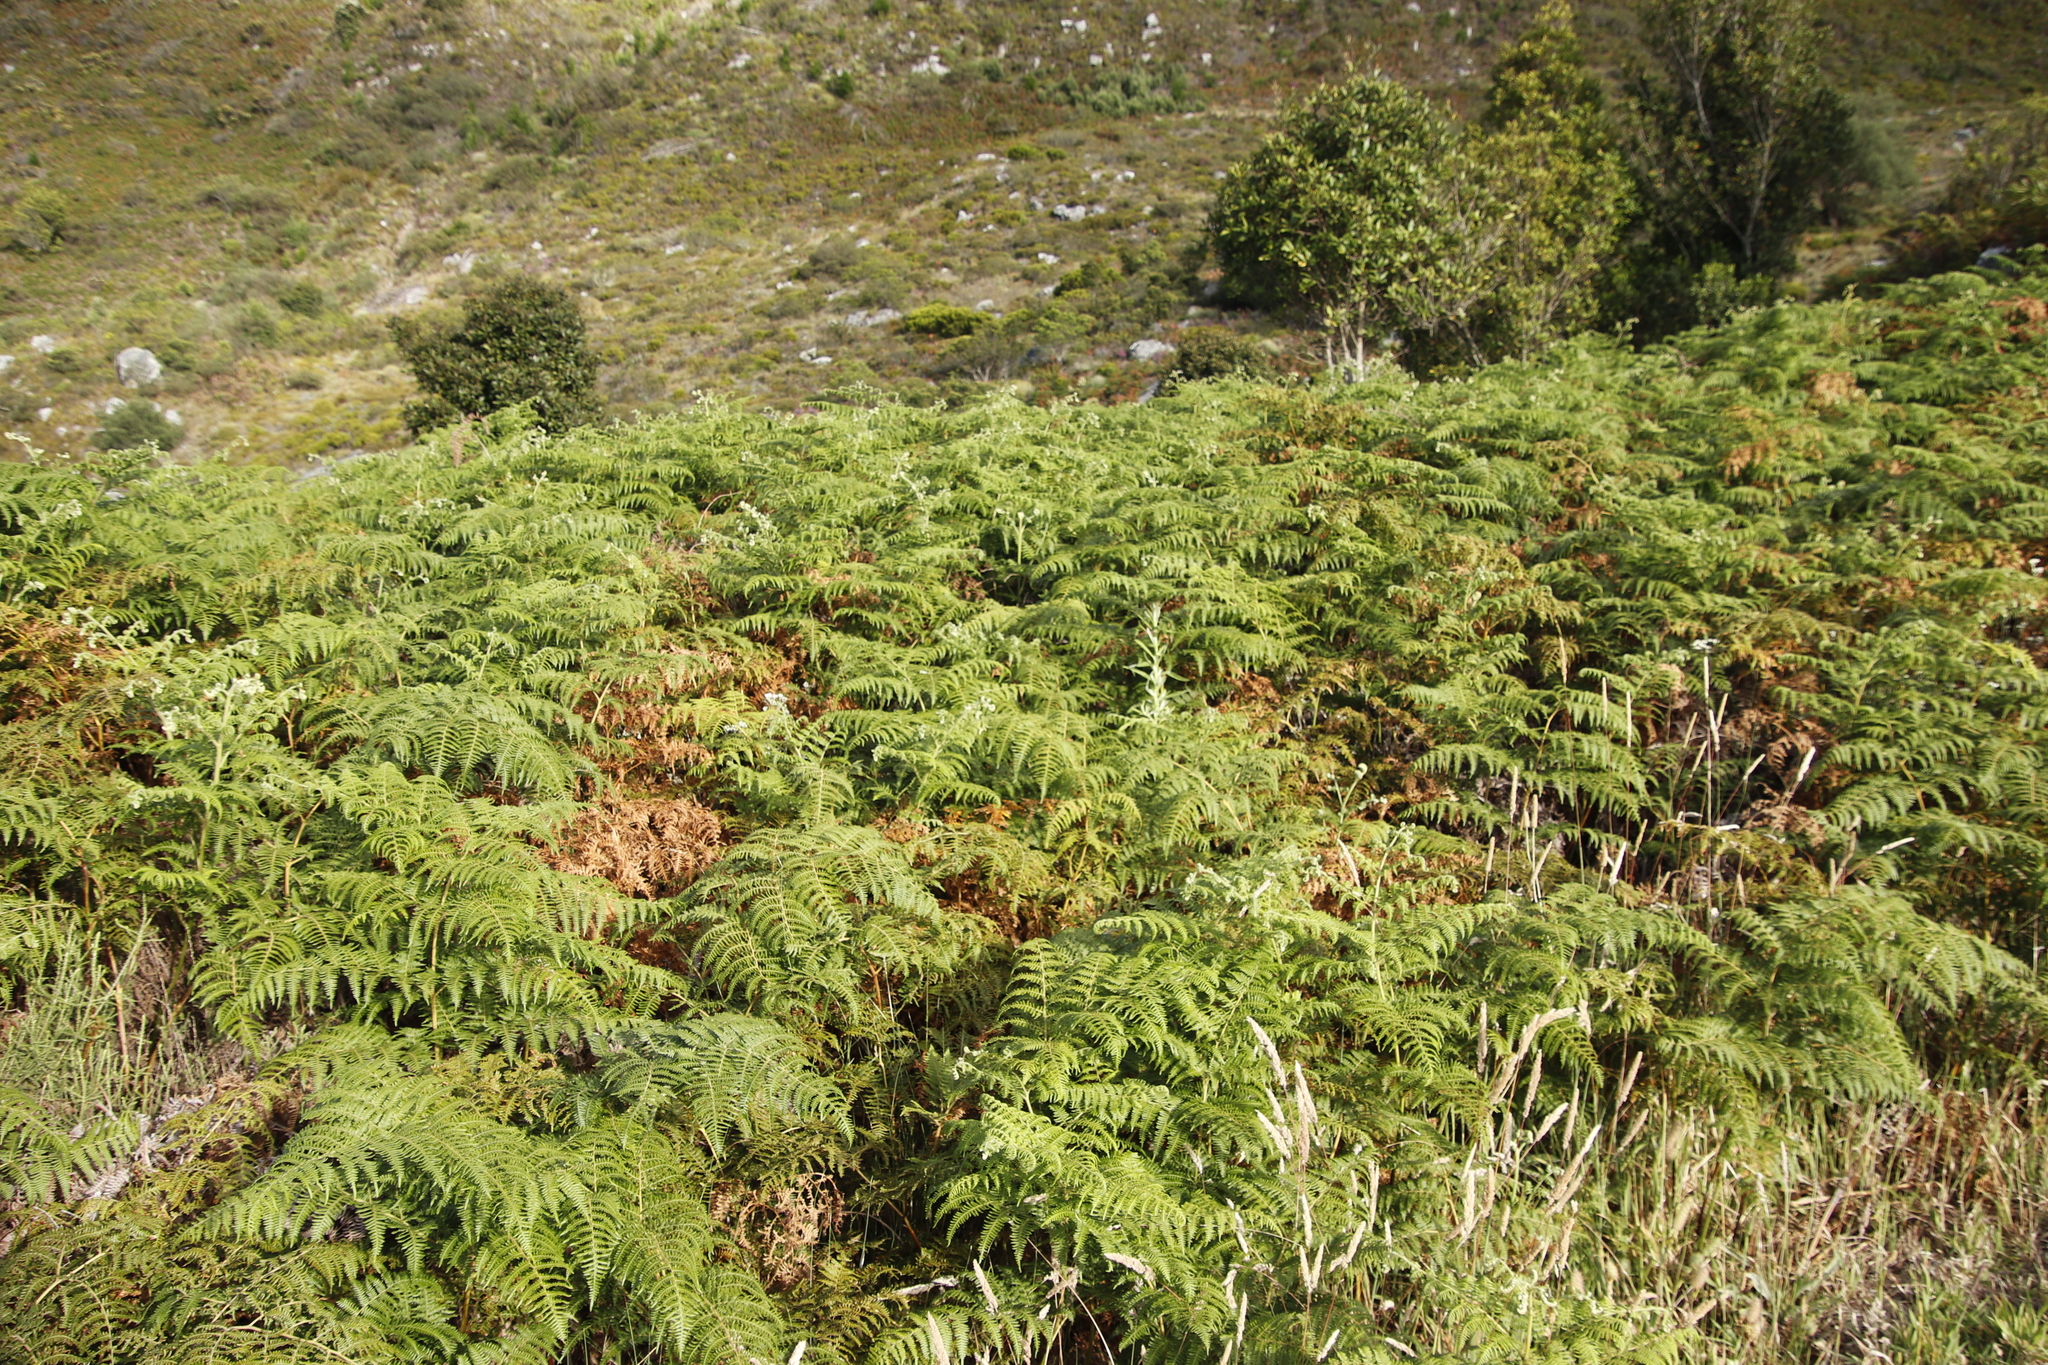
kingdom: Plantae
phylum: Tracheophyta
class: Polypodiopsida
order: Polypodiales
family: Dennstaedtiaceae
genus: Pteridium
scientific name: Pteridium aquilinum
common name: Bracken
